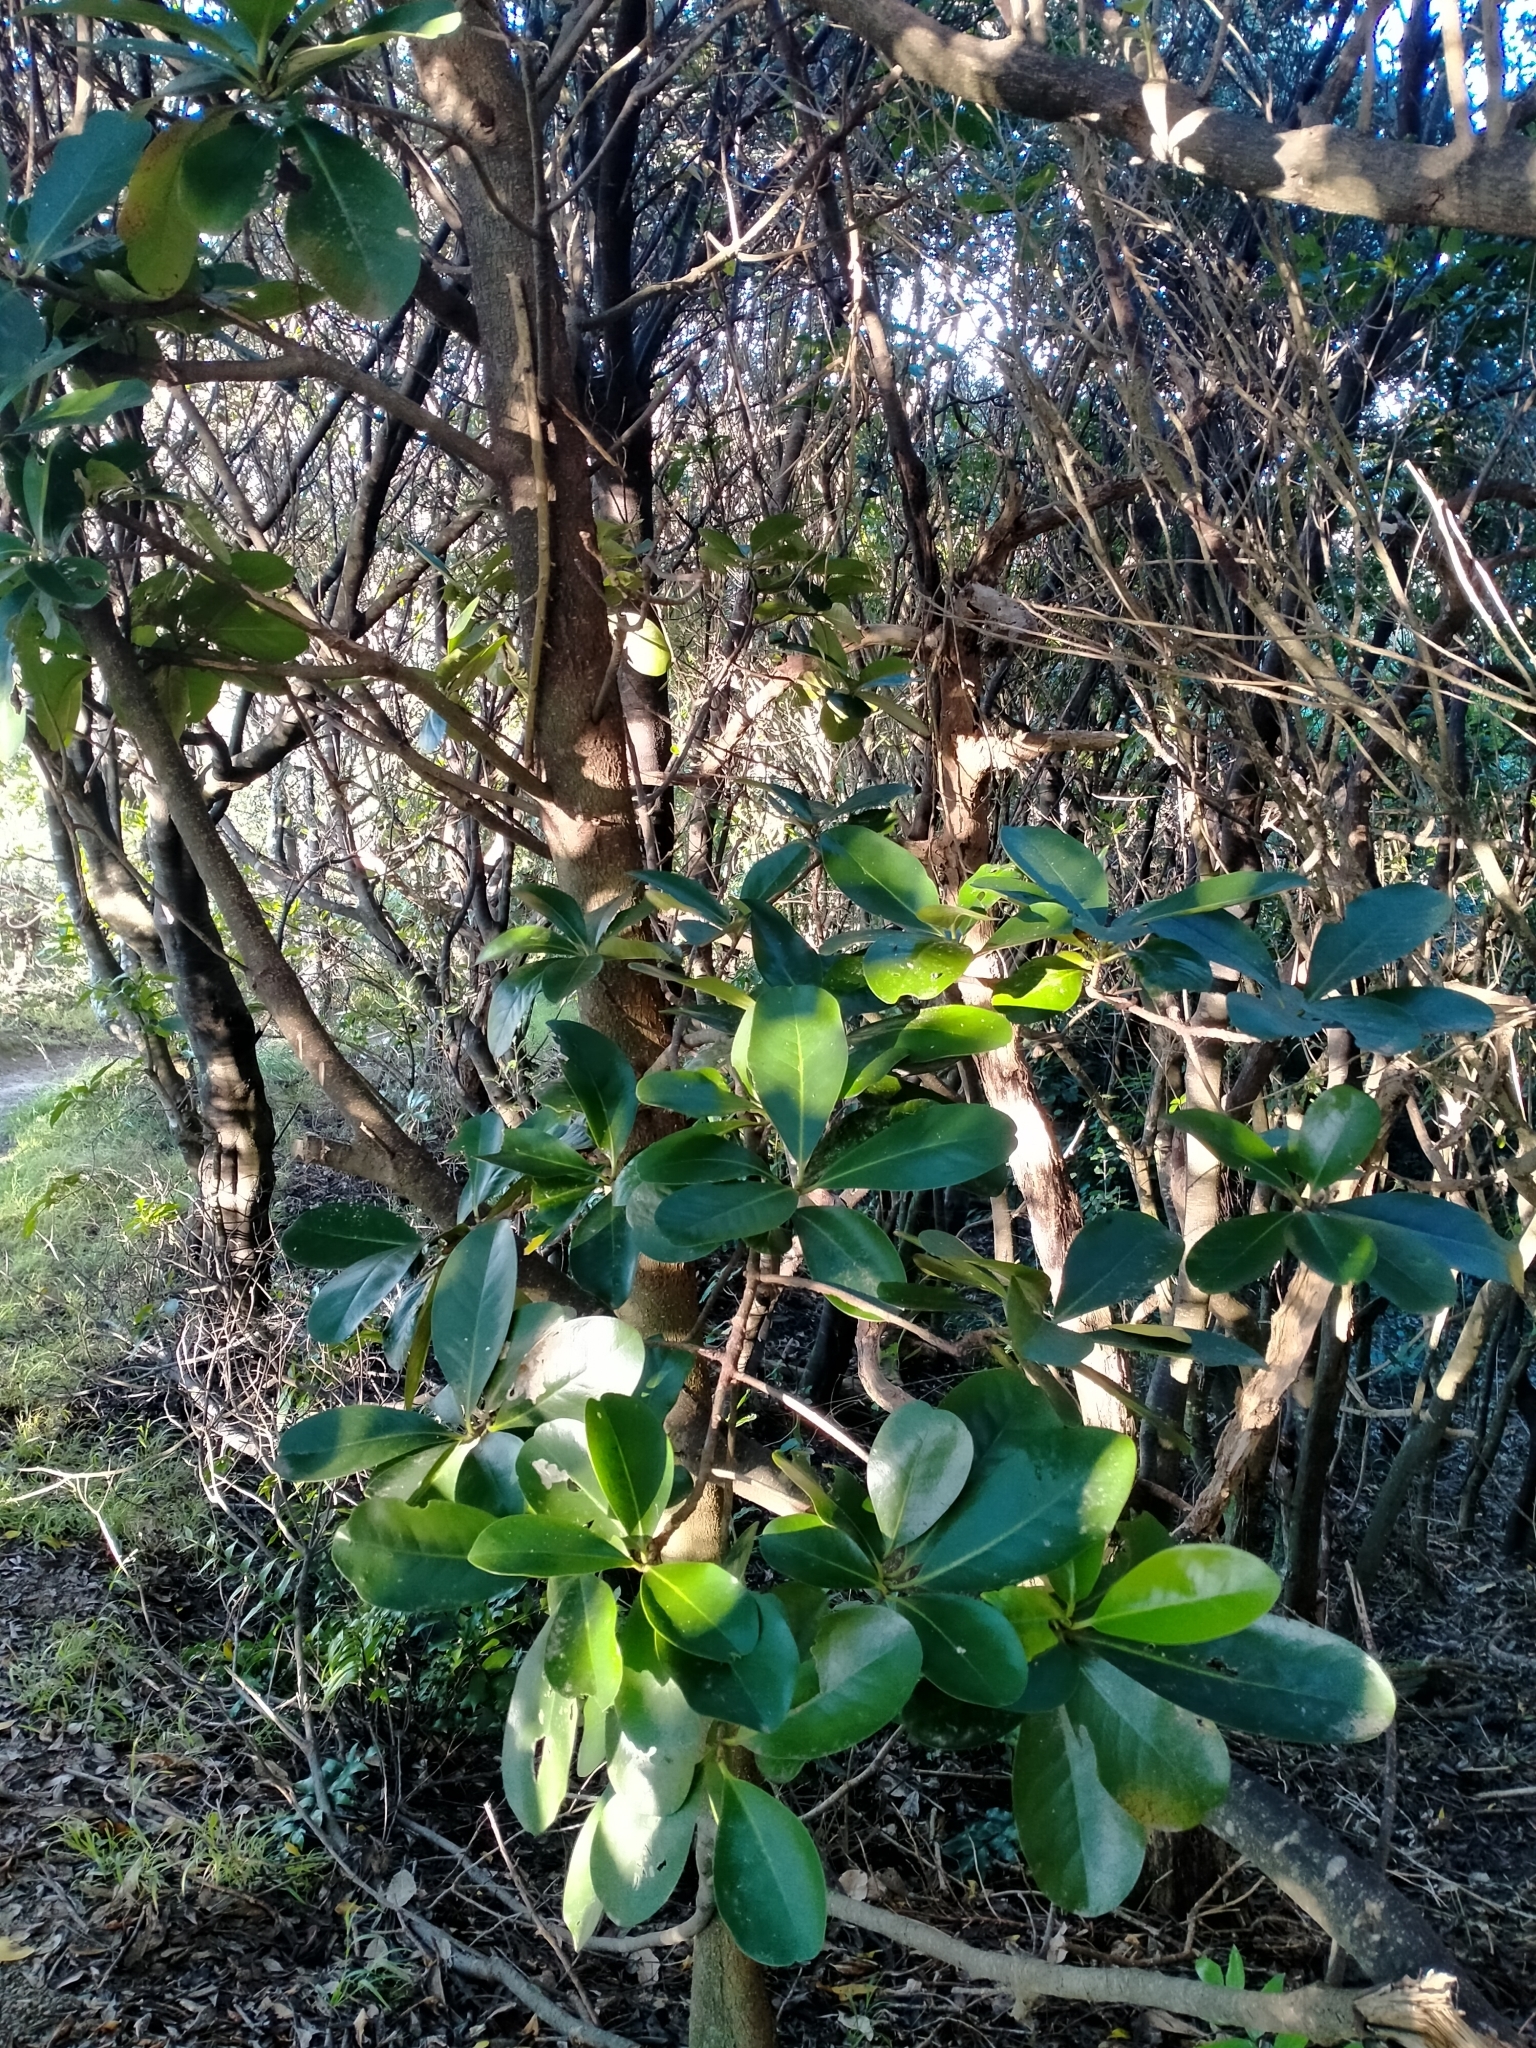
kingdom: Plantae
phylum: Tracheophyta
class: Magnoliopsida
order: Cucurbitales
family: Corynocarpaceae
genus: Corynocarpus
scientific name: Corynocarpus laevigatus
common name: New zealand laurel
